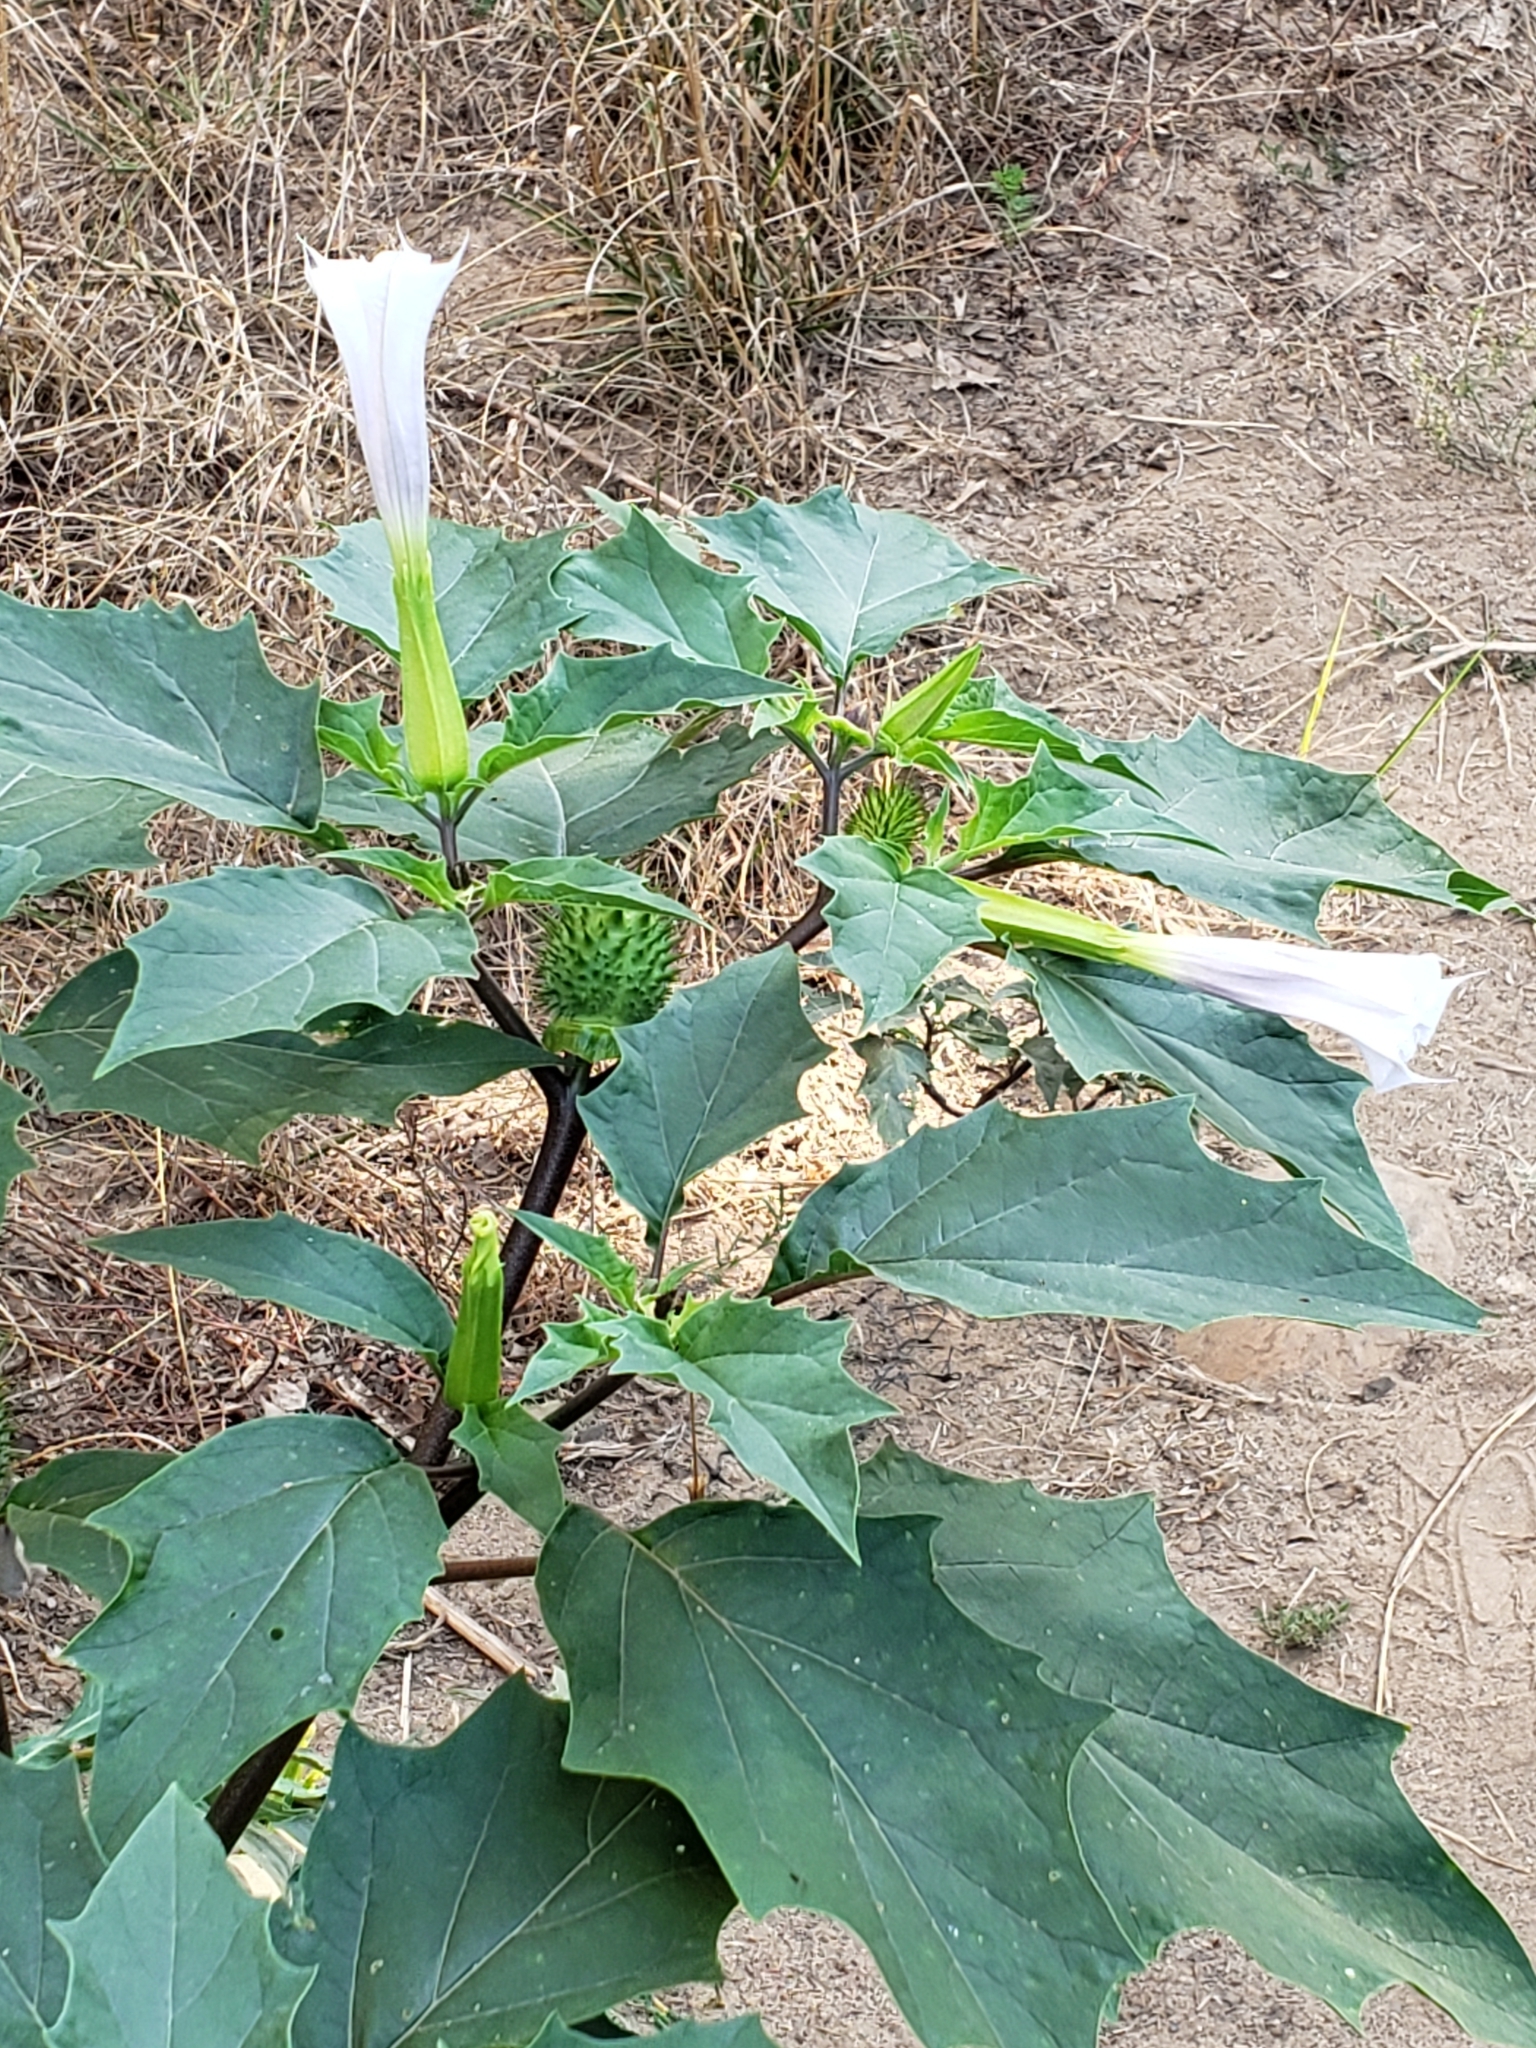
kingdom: Plantae
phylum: Tracheophyta
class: Magnoliopsida
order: Solanales
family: Solanaceae
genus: Datura
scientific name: Datura stramonium
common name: Thorn-apple
